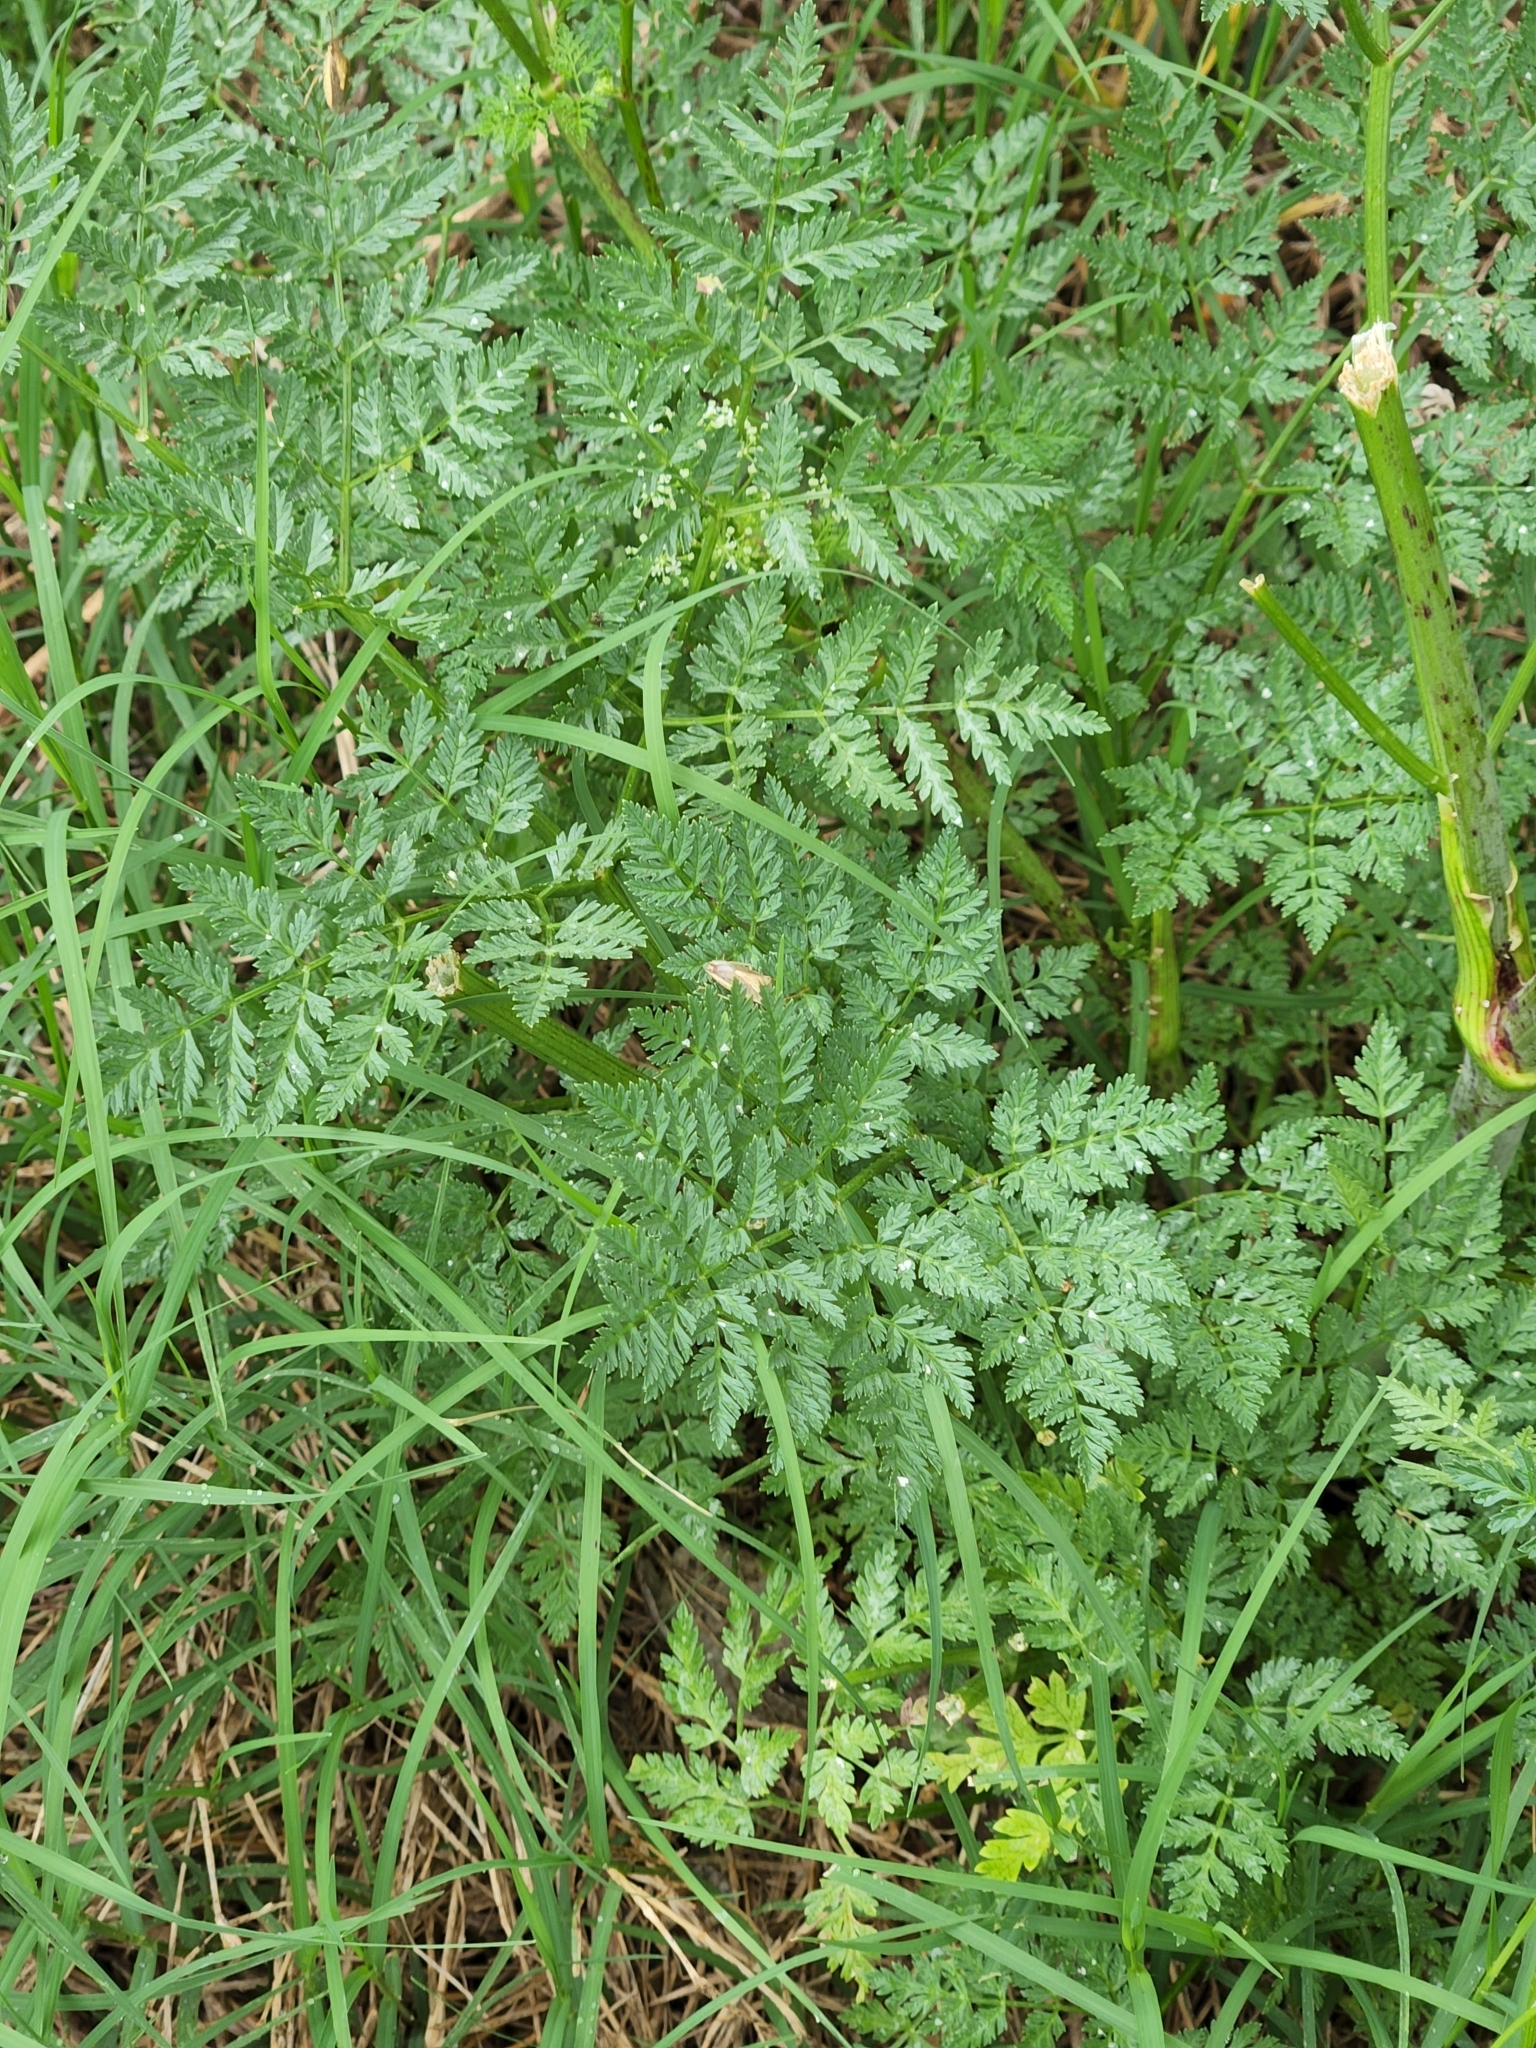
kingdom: Plantae
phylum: Tracheophyta
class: Magnoliopsida
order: Apiales
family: Apiaceae
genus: Conium
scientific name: Conium maculatum
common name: Hemlock
